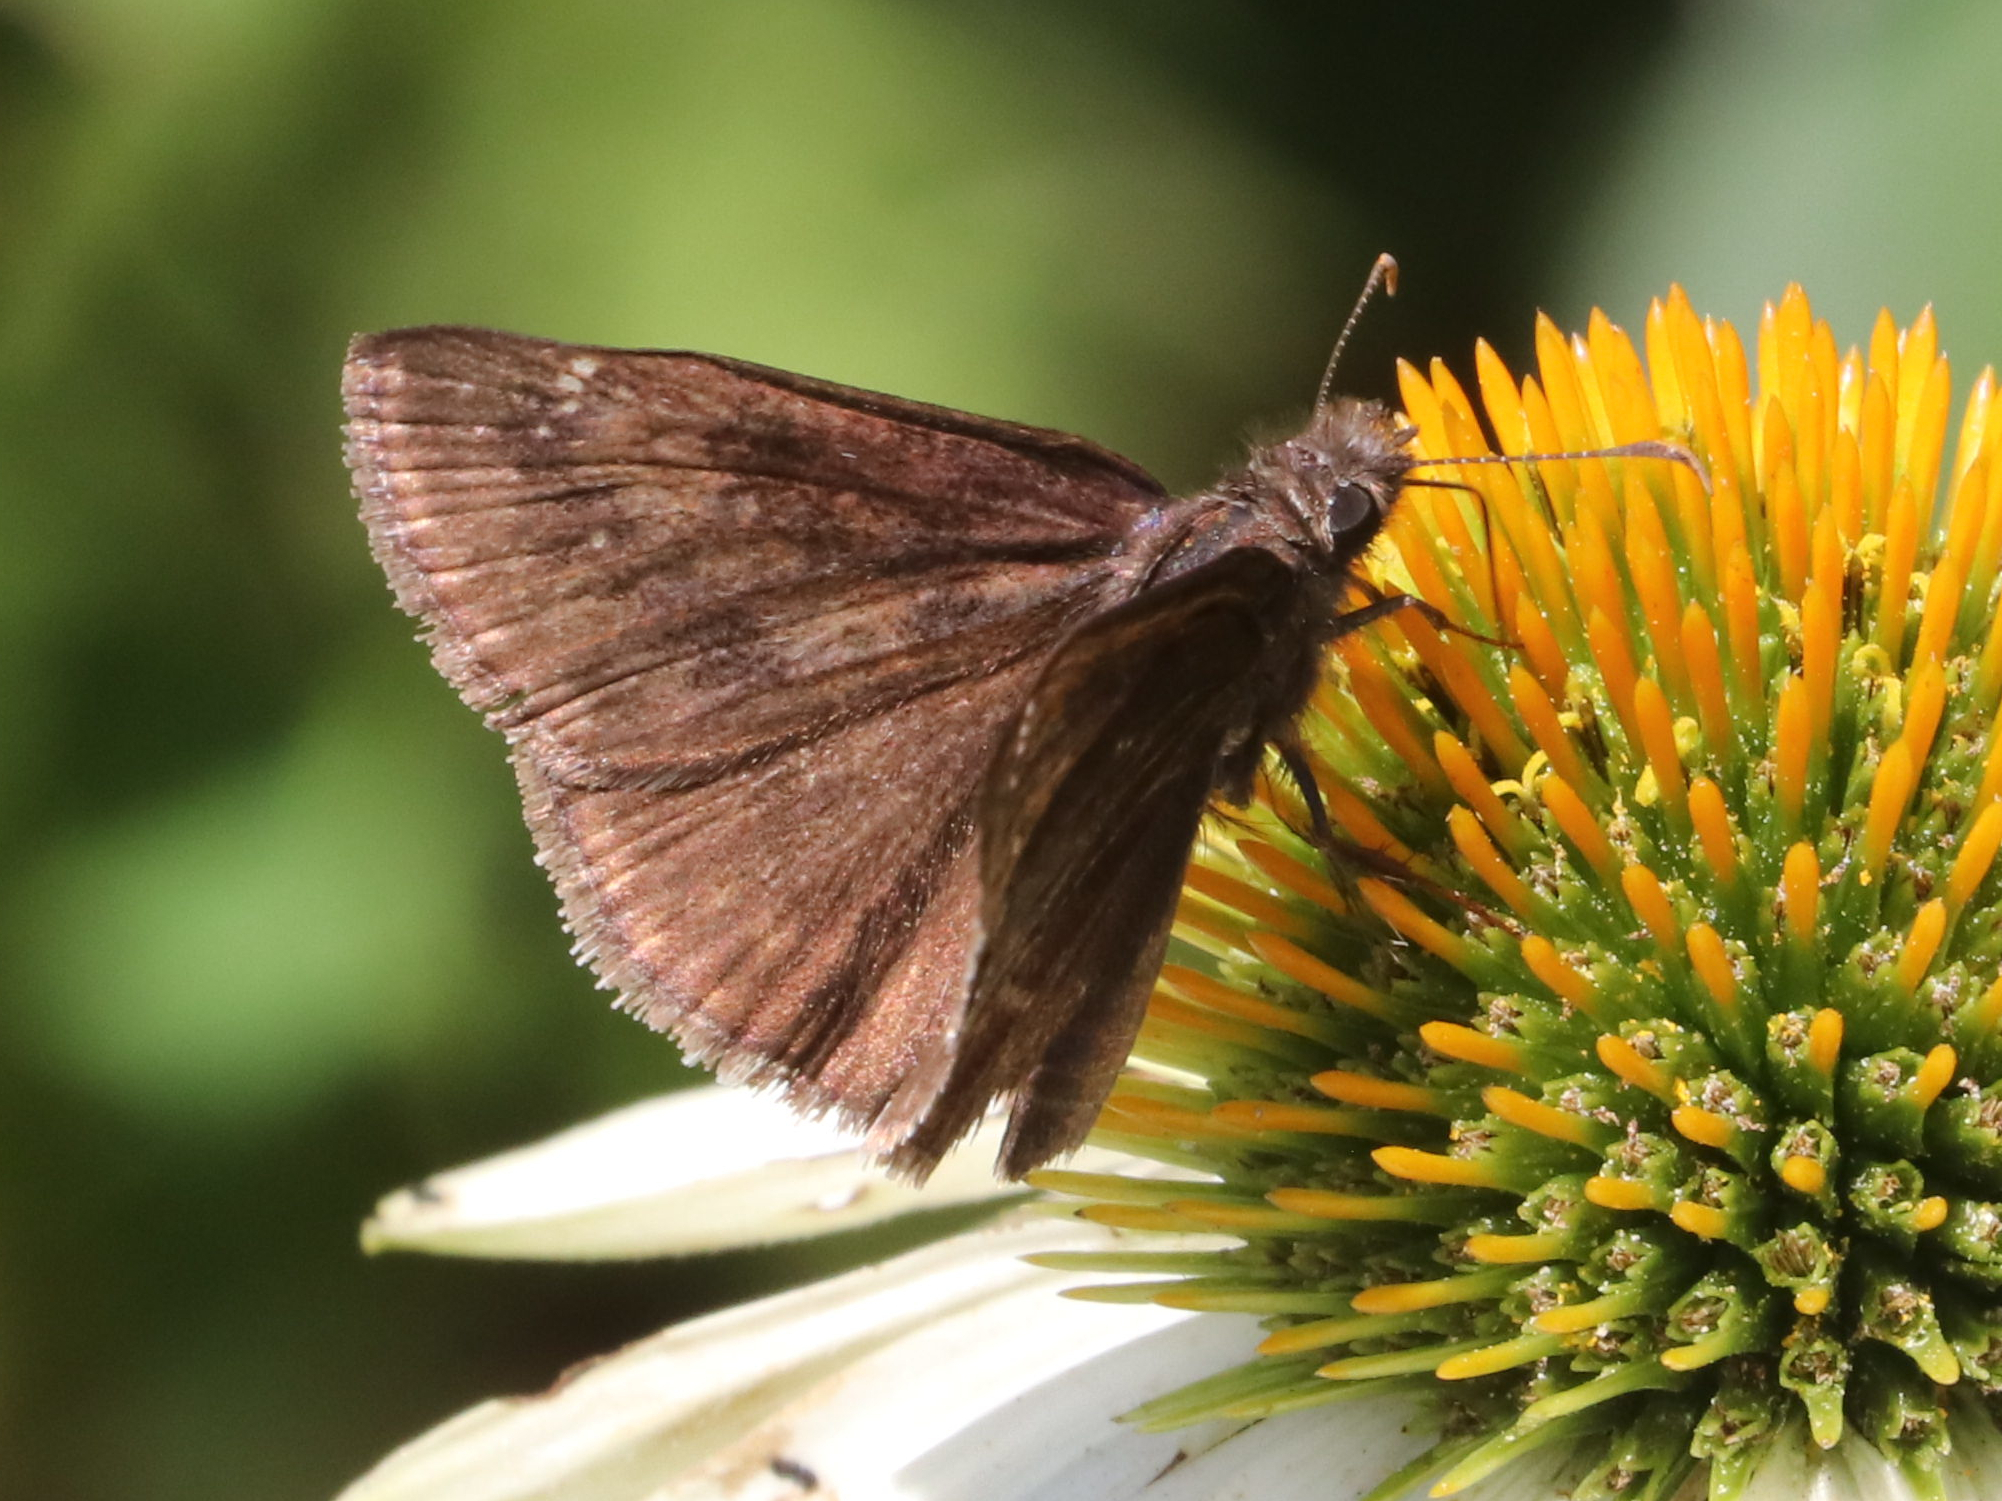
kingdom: Animalia
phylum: Arthropoda
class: Insecta
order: Lepidoptera
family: Hesperiidae
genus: Erynnis
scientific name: Erynnis baptisiae
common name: Wild indigo duskywing
